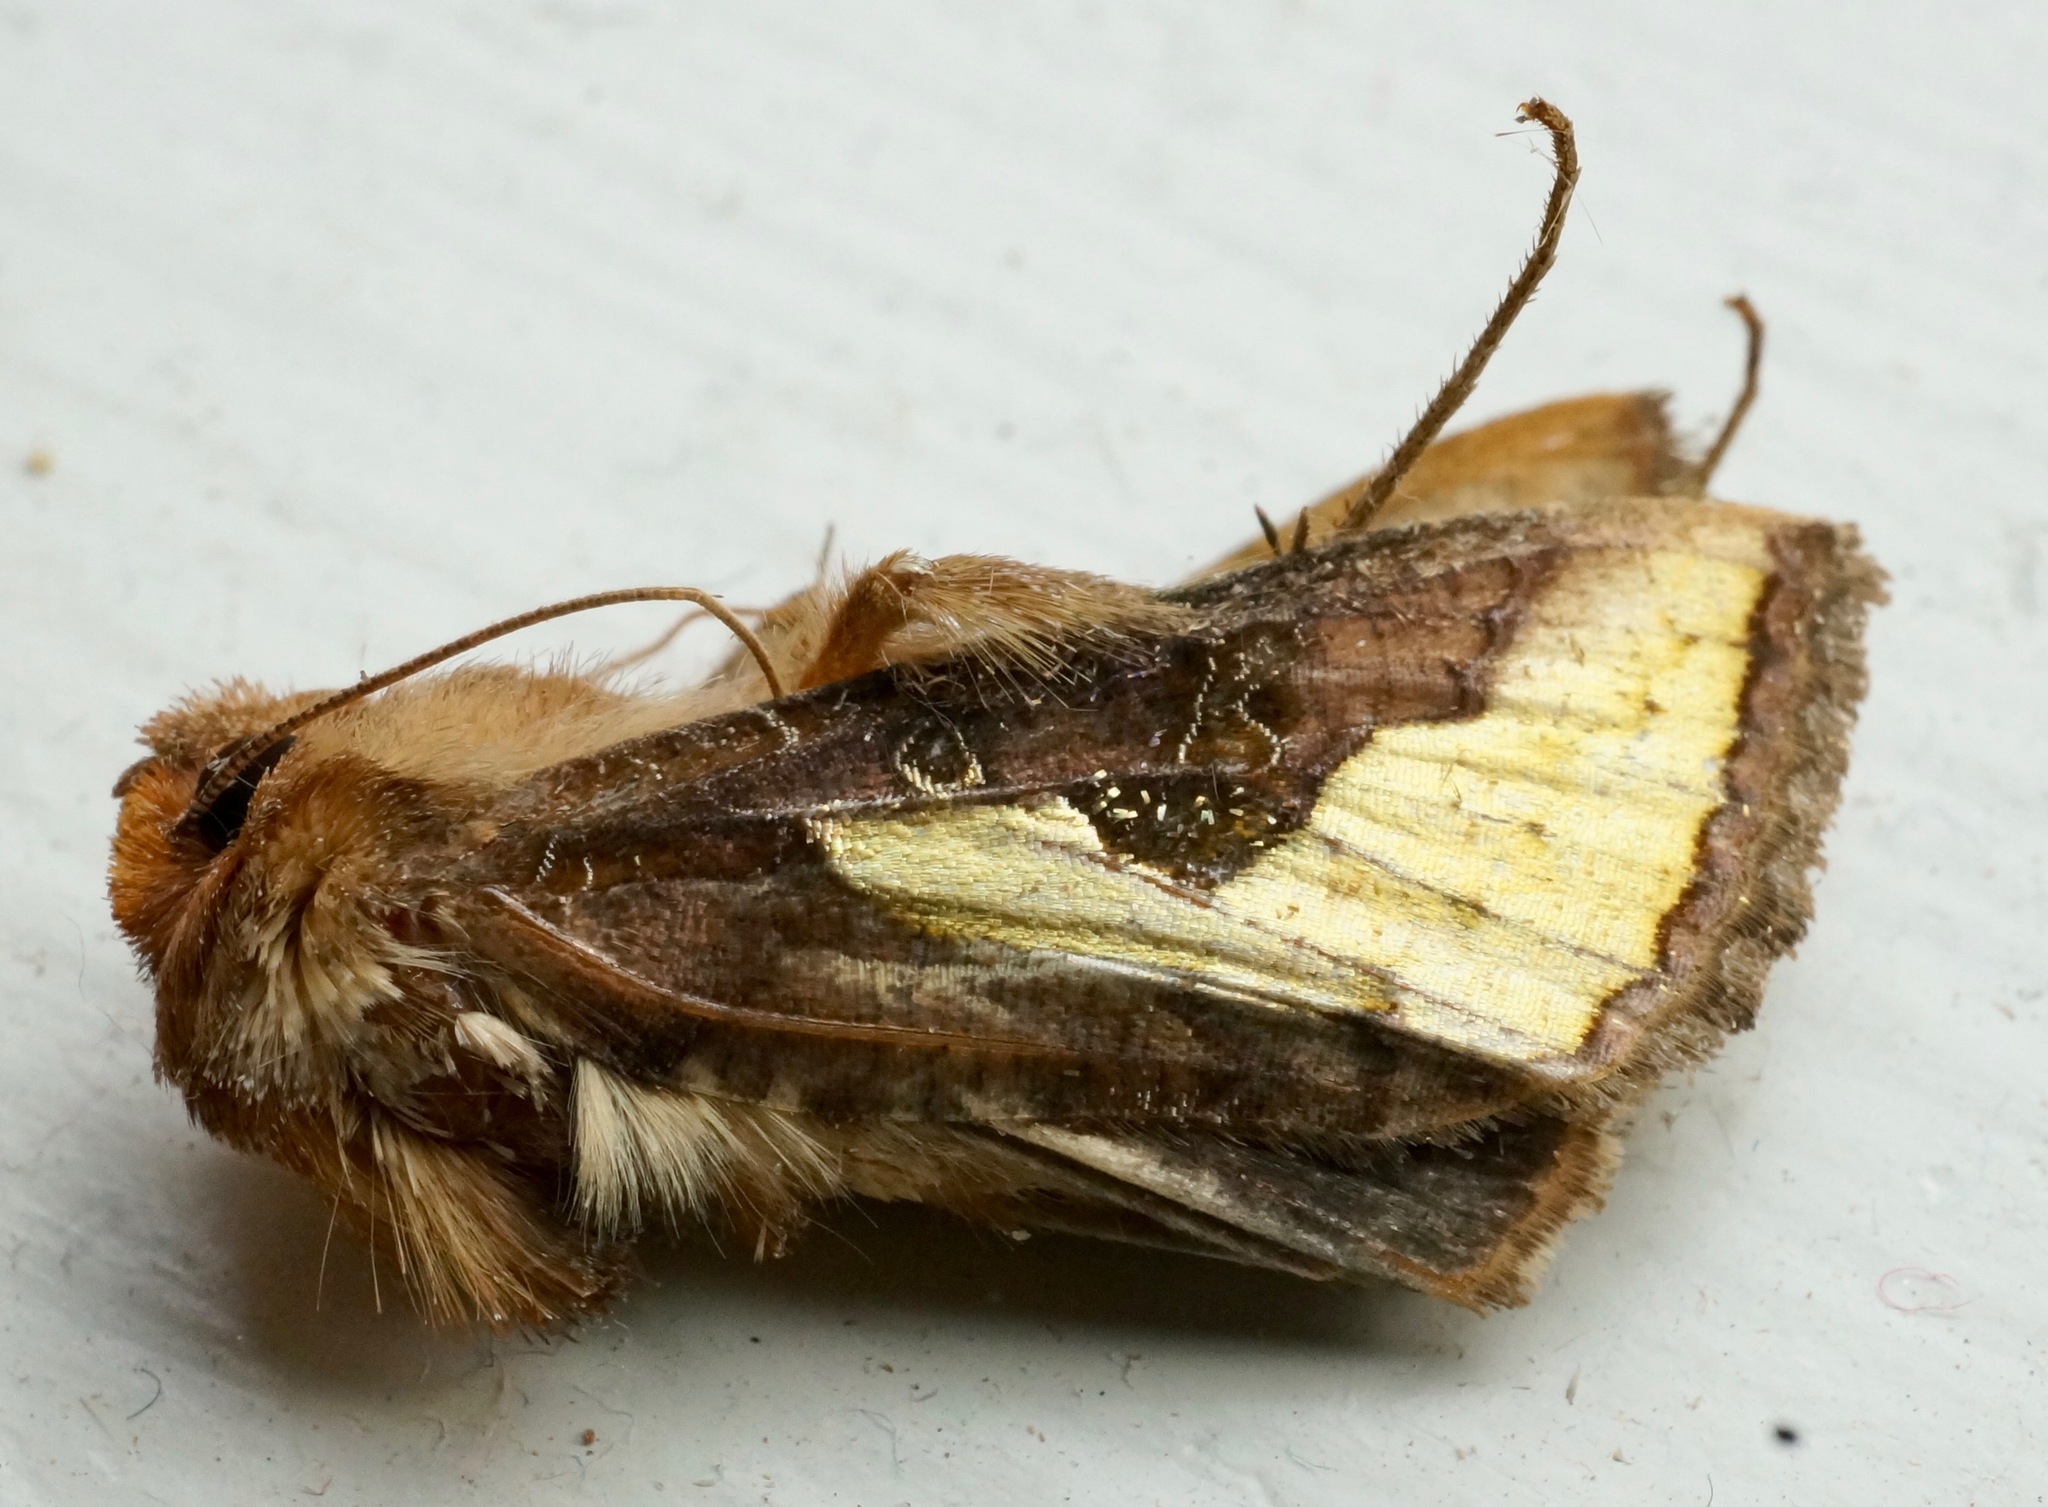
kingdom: Animalia
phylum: Arthropoda
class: Insecta
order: Lepidoptera
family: Noctuidae
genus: Thysanoplusia
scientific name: Thysanoplusia orichalcea
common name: Slender burnished brass, golden plusia
